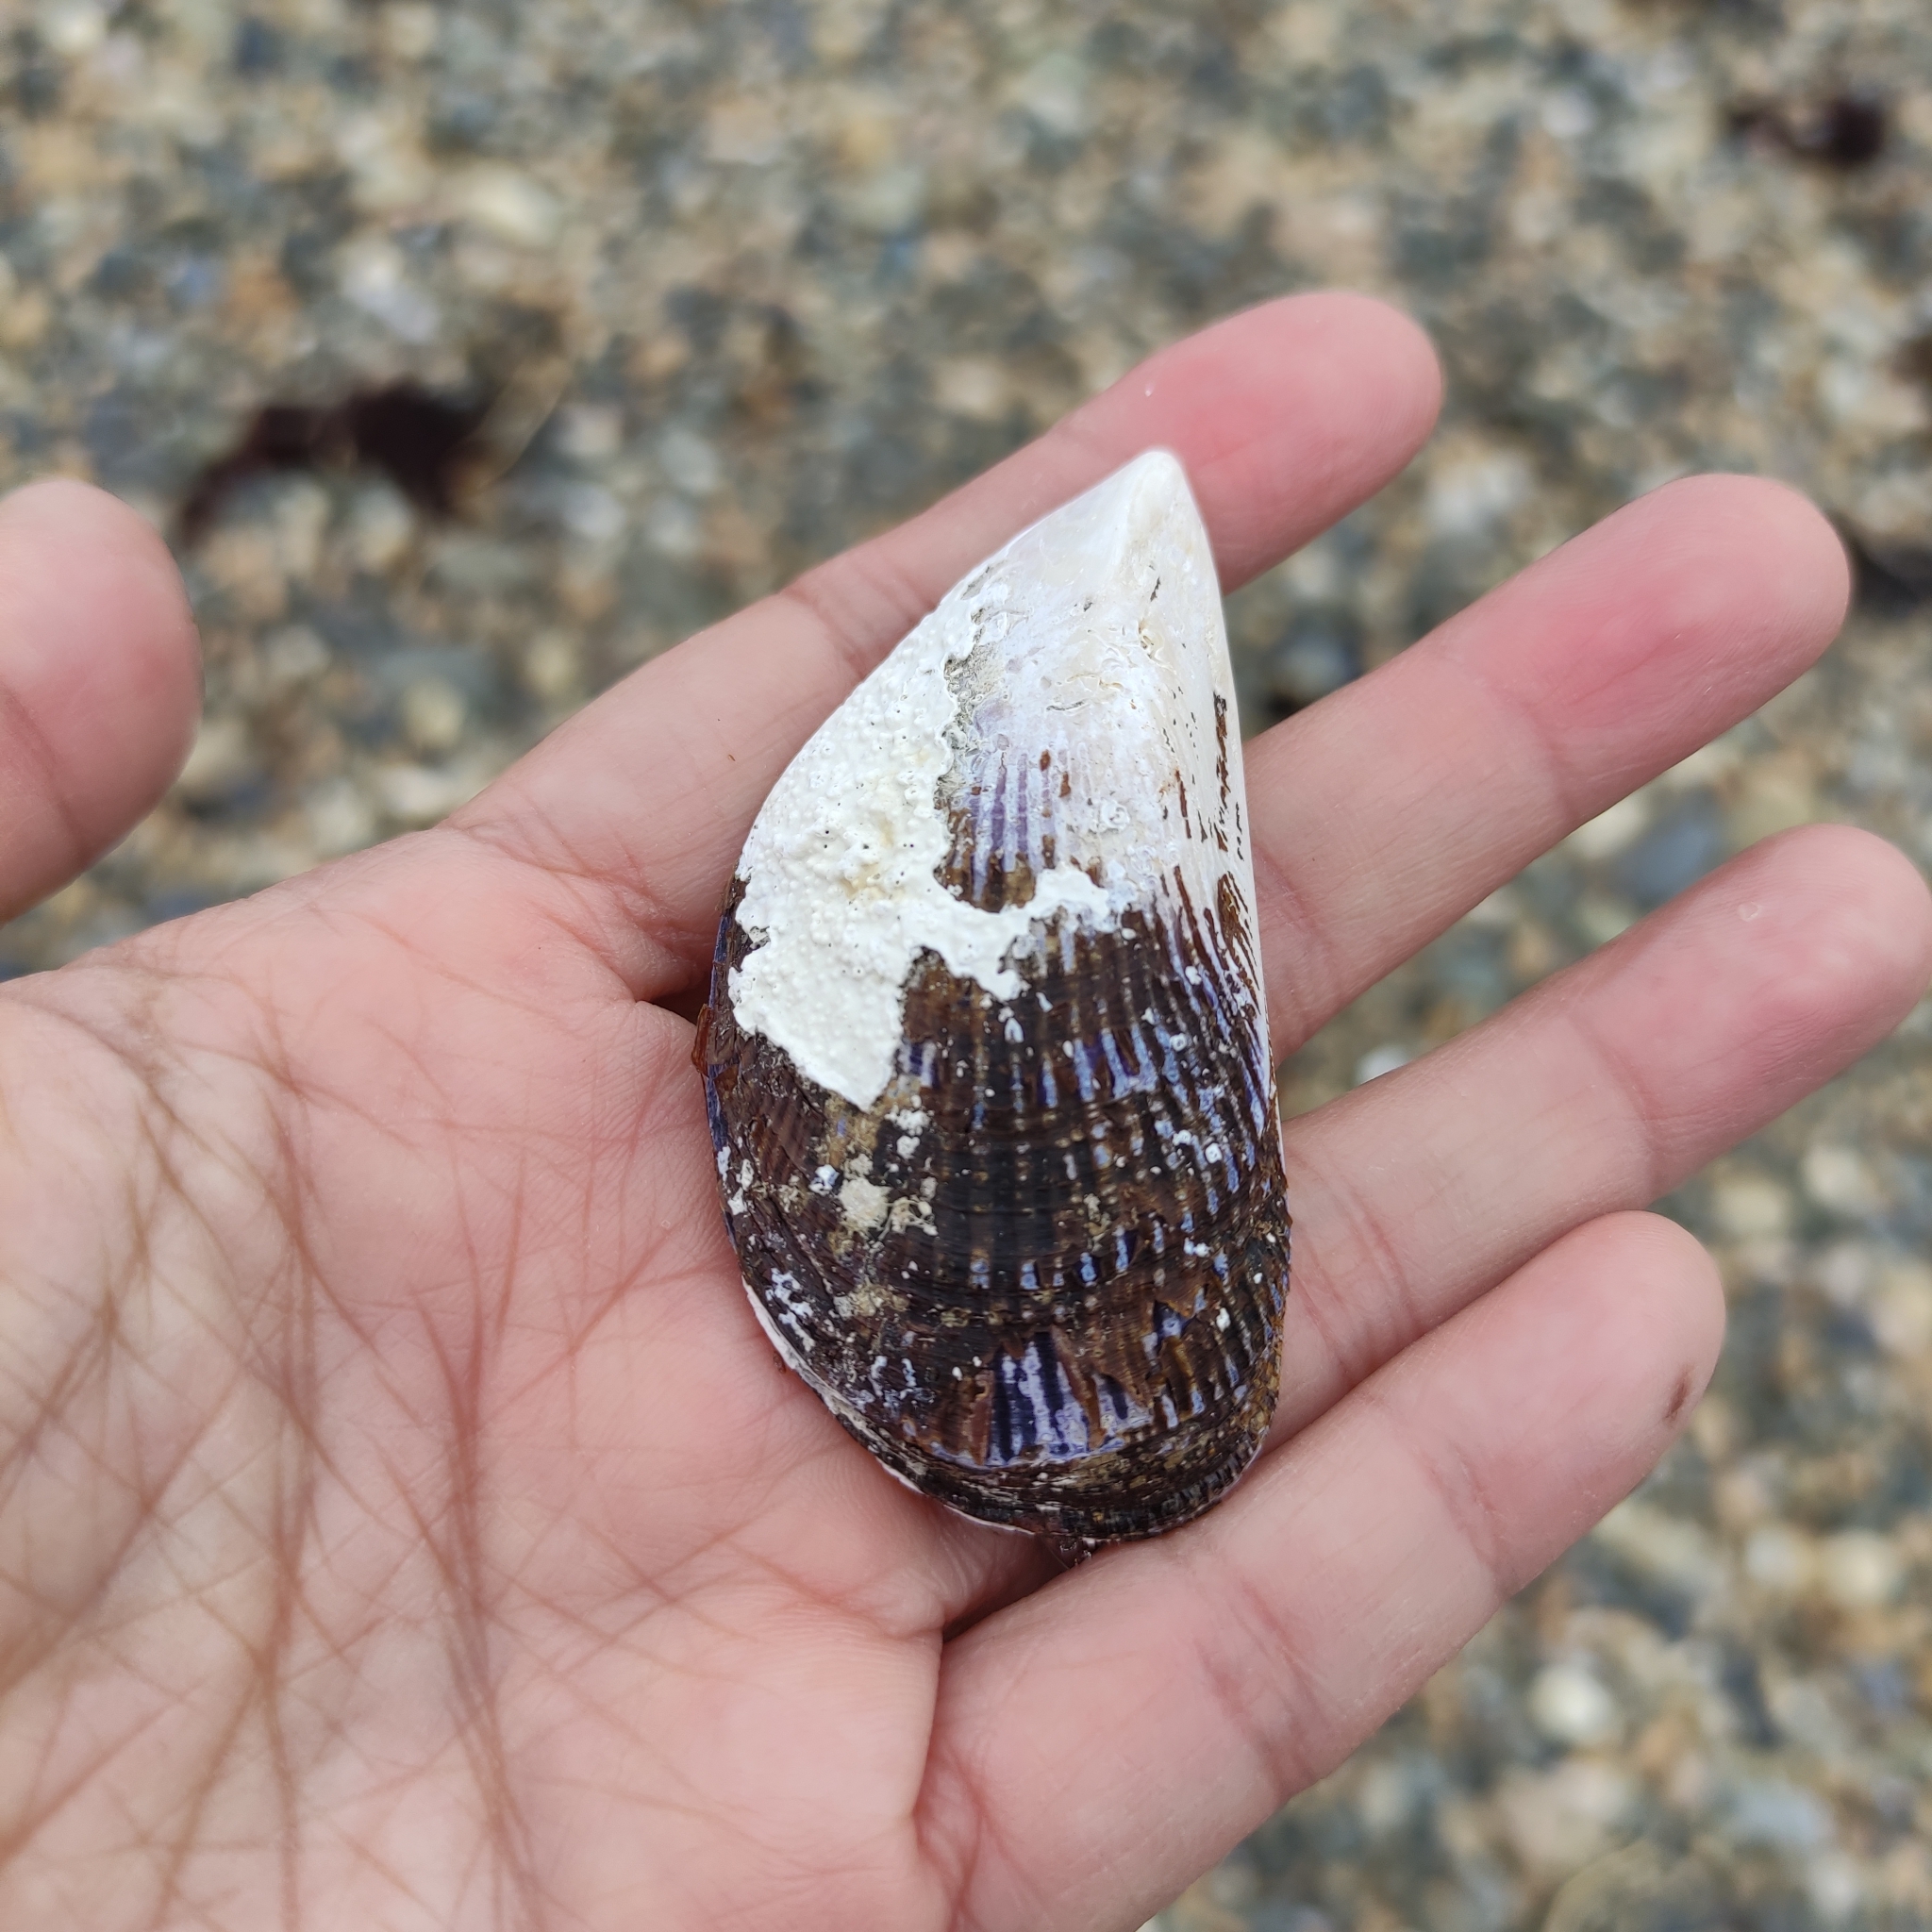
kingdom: Animalia
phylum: Mollusca
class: Bivalvia
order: Mytilida
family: Mytilidae
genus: Aulacomya
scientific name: Aulacomya maoriana
